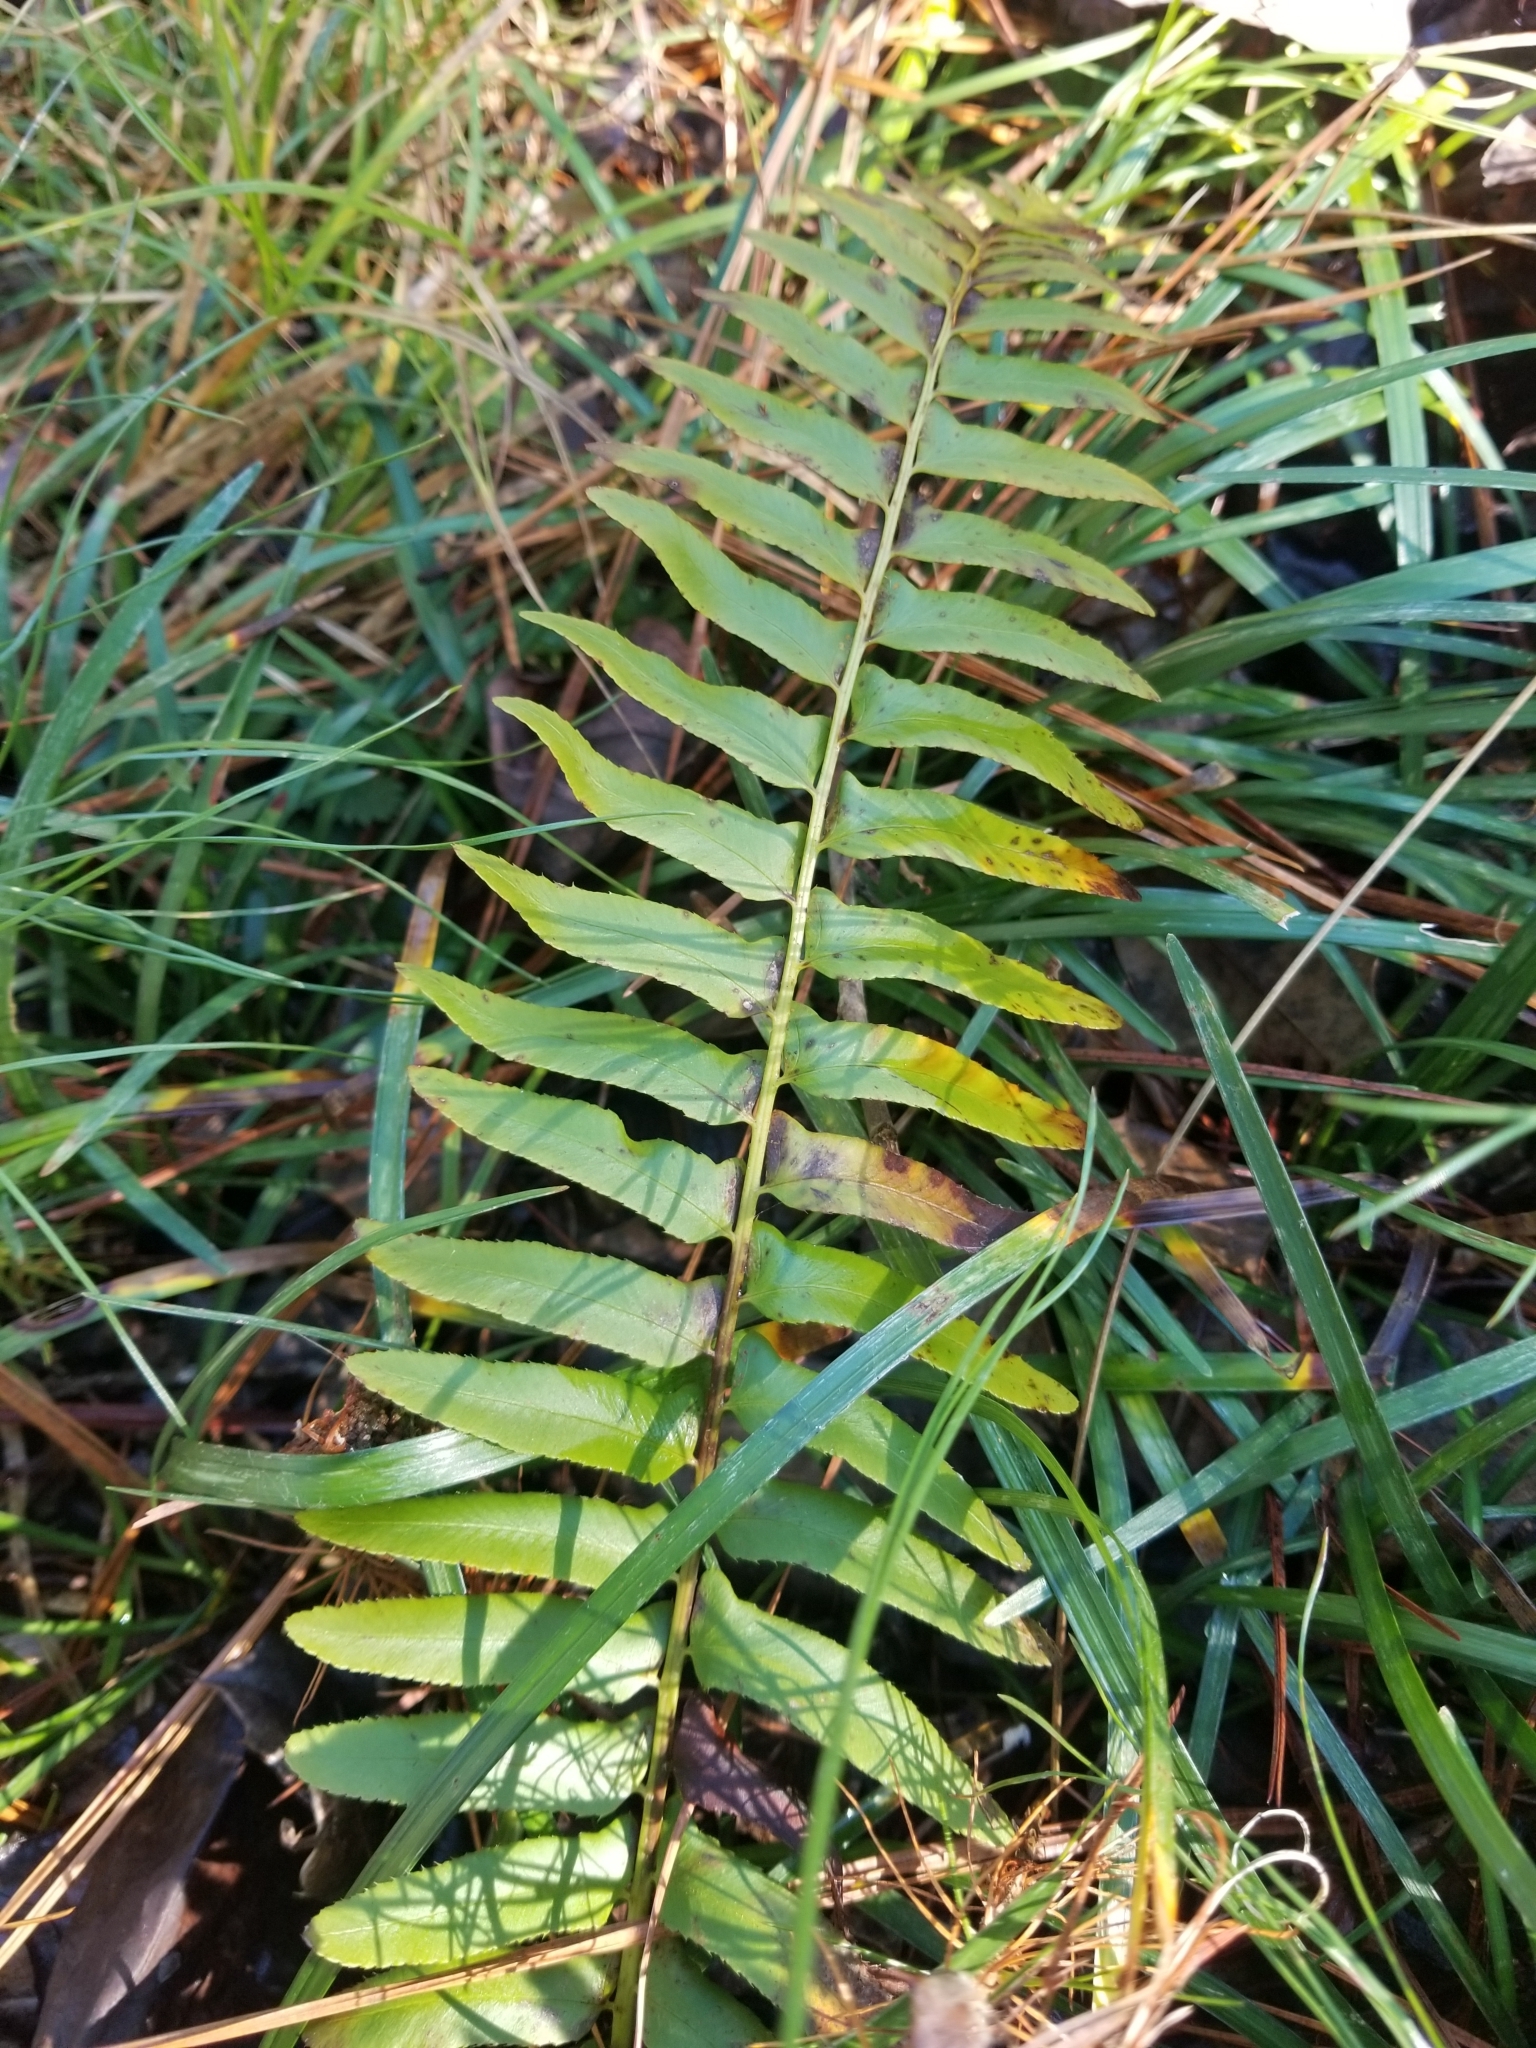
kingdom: Plantae
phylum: Tracheophyta
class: Polypodiopsida
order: Polypodiales
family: Dryopteridaceae
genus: Polystichum
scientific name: Polystichum acrostichoides
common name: Christmas fern
